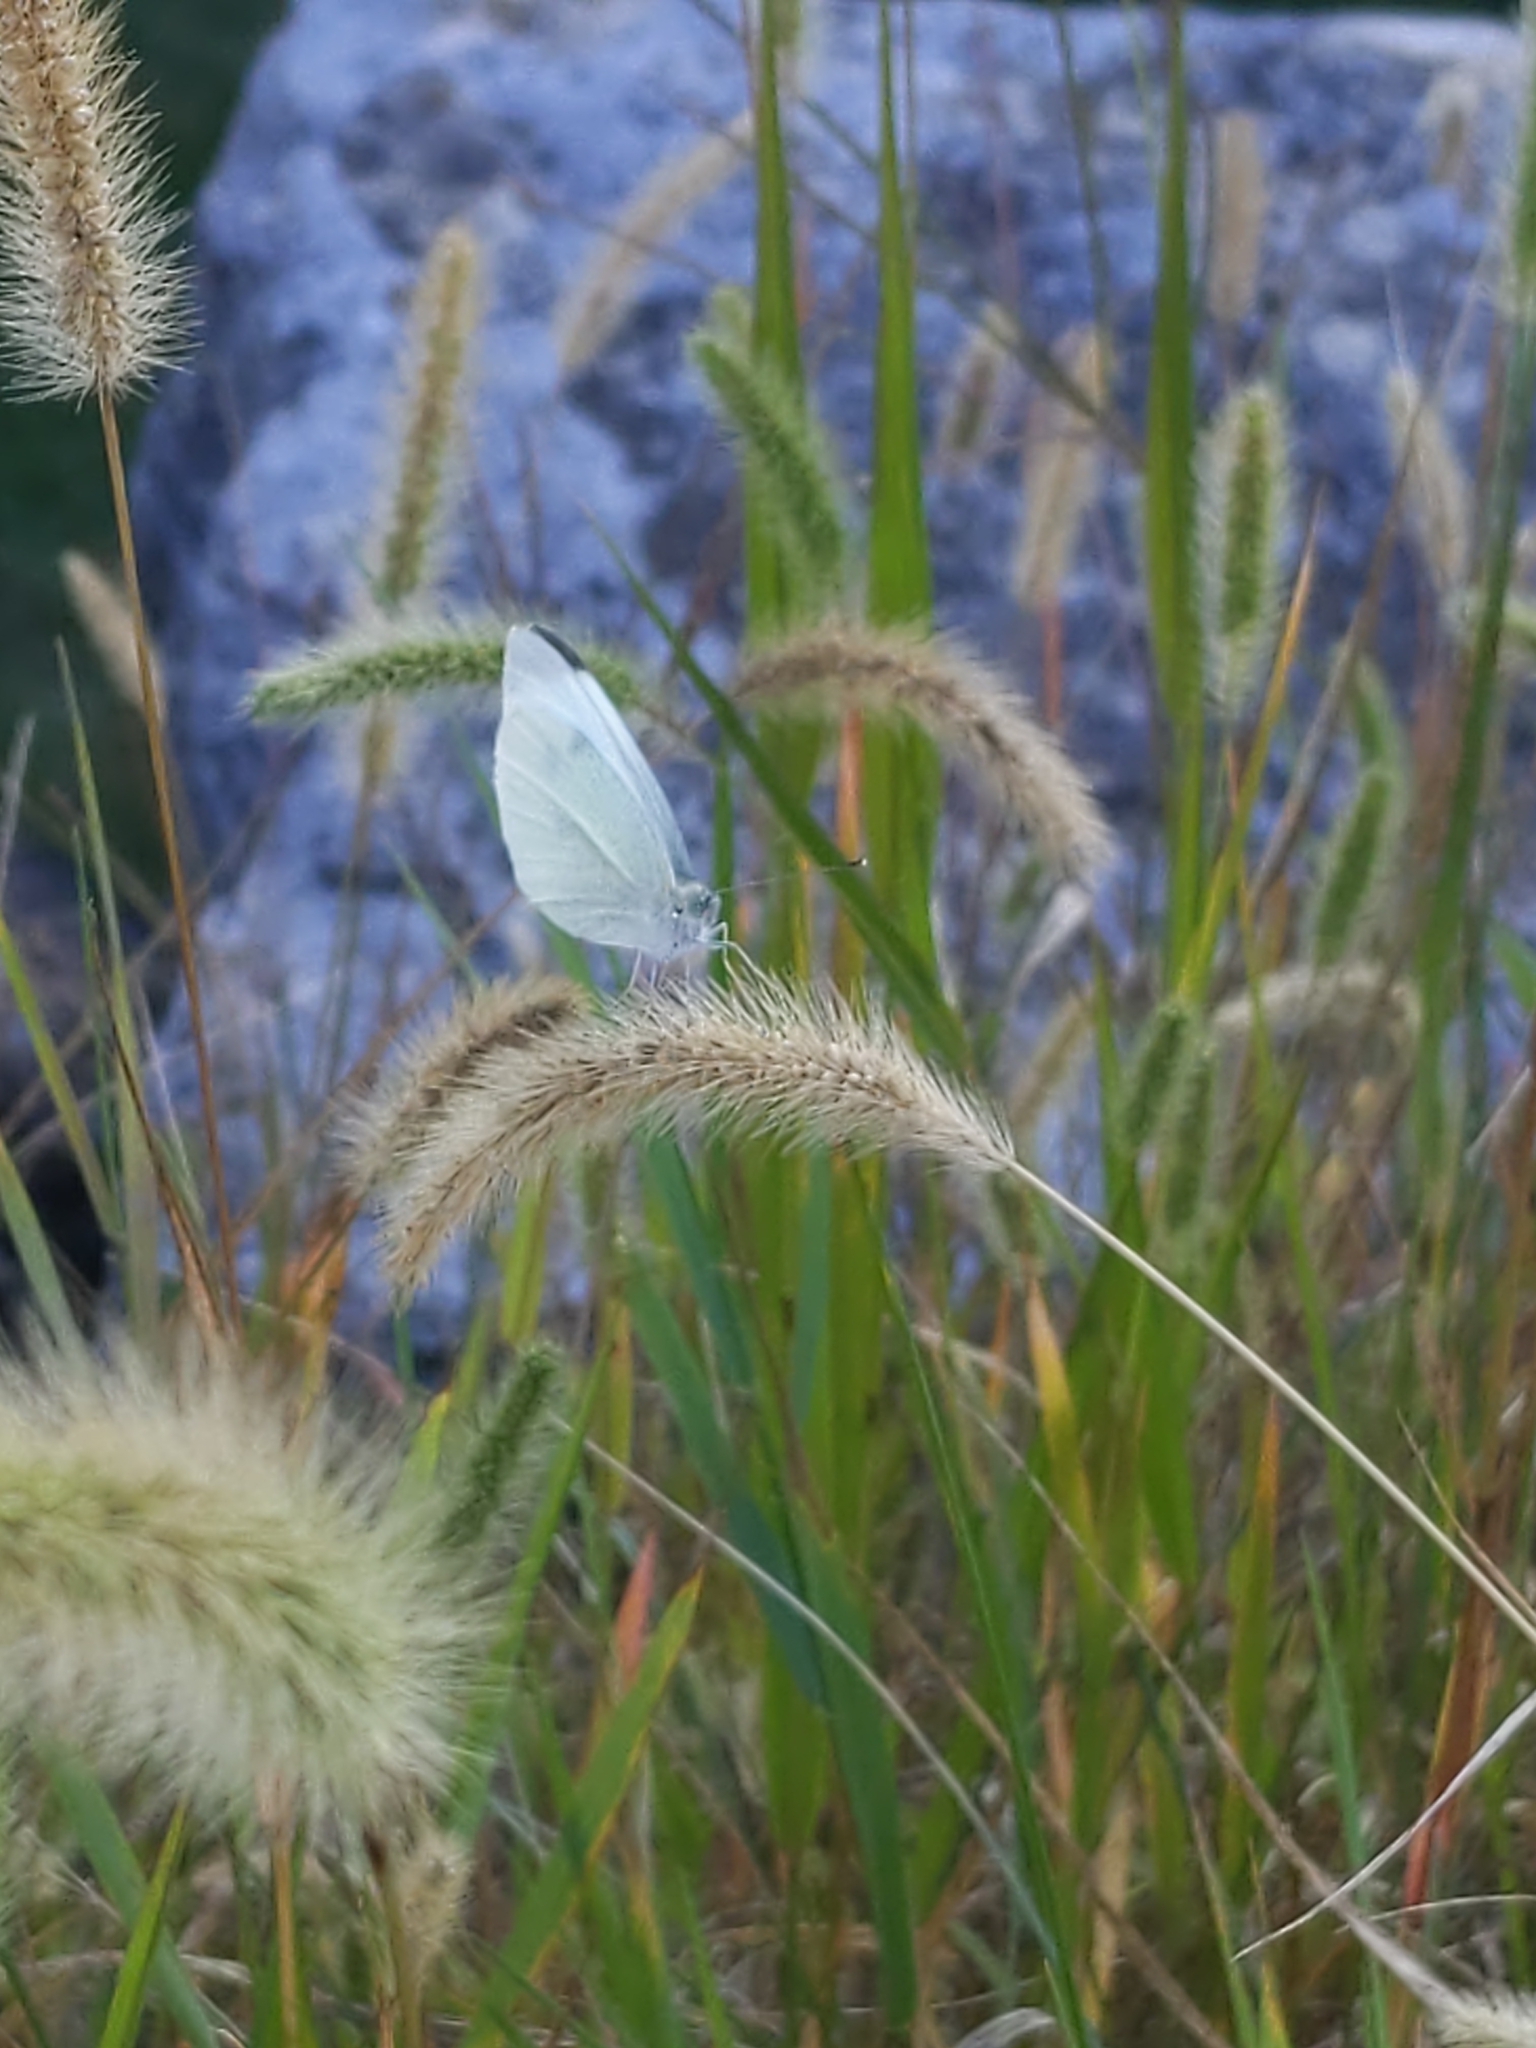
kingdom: Animalia
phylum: Arthropoda
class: Insecta
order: Lepidoptera
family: Pieridae
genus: Pieris
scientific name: Pieris rapae
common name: Small white
